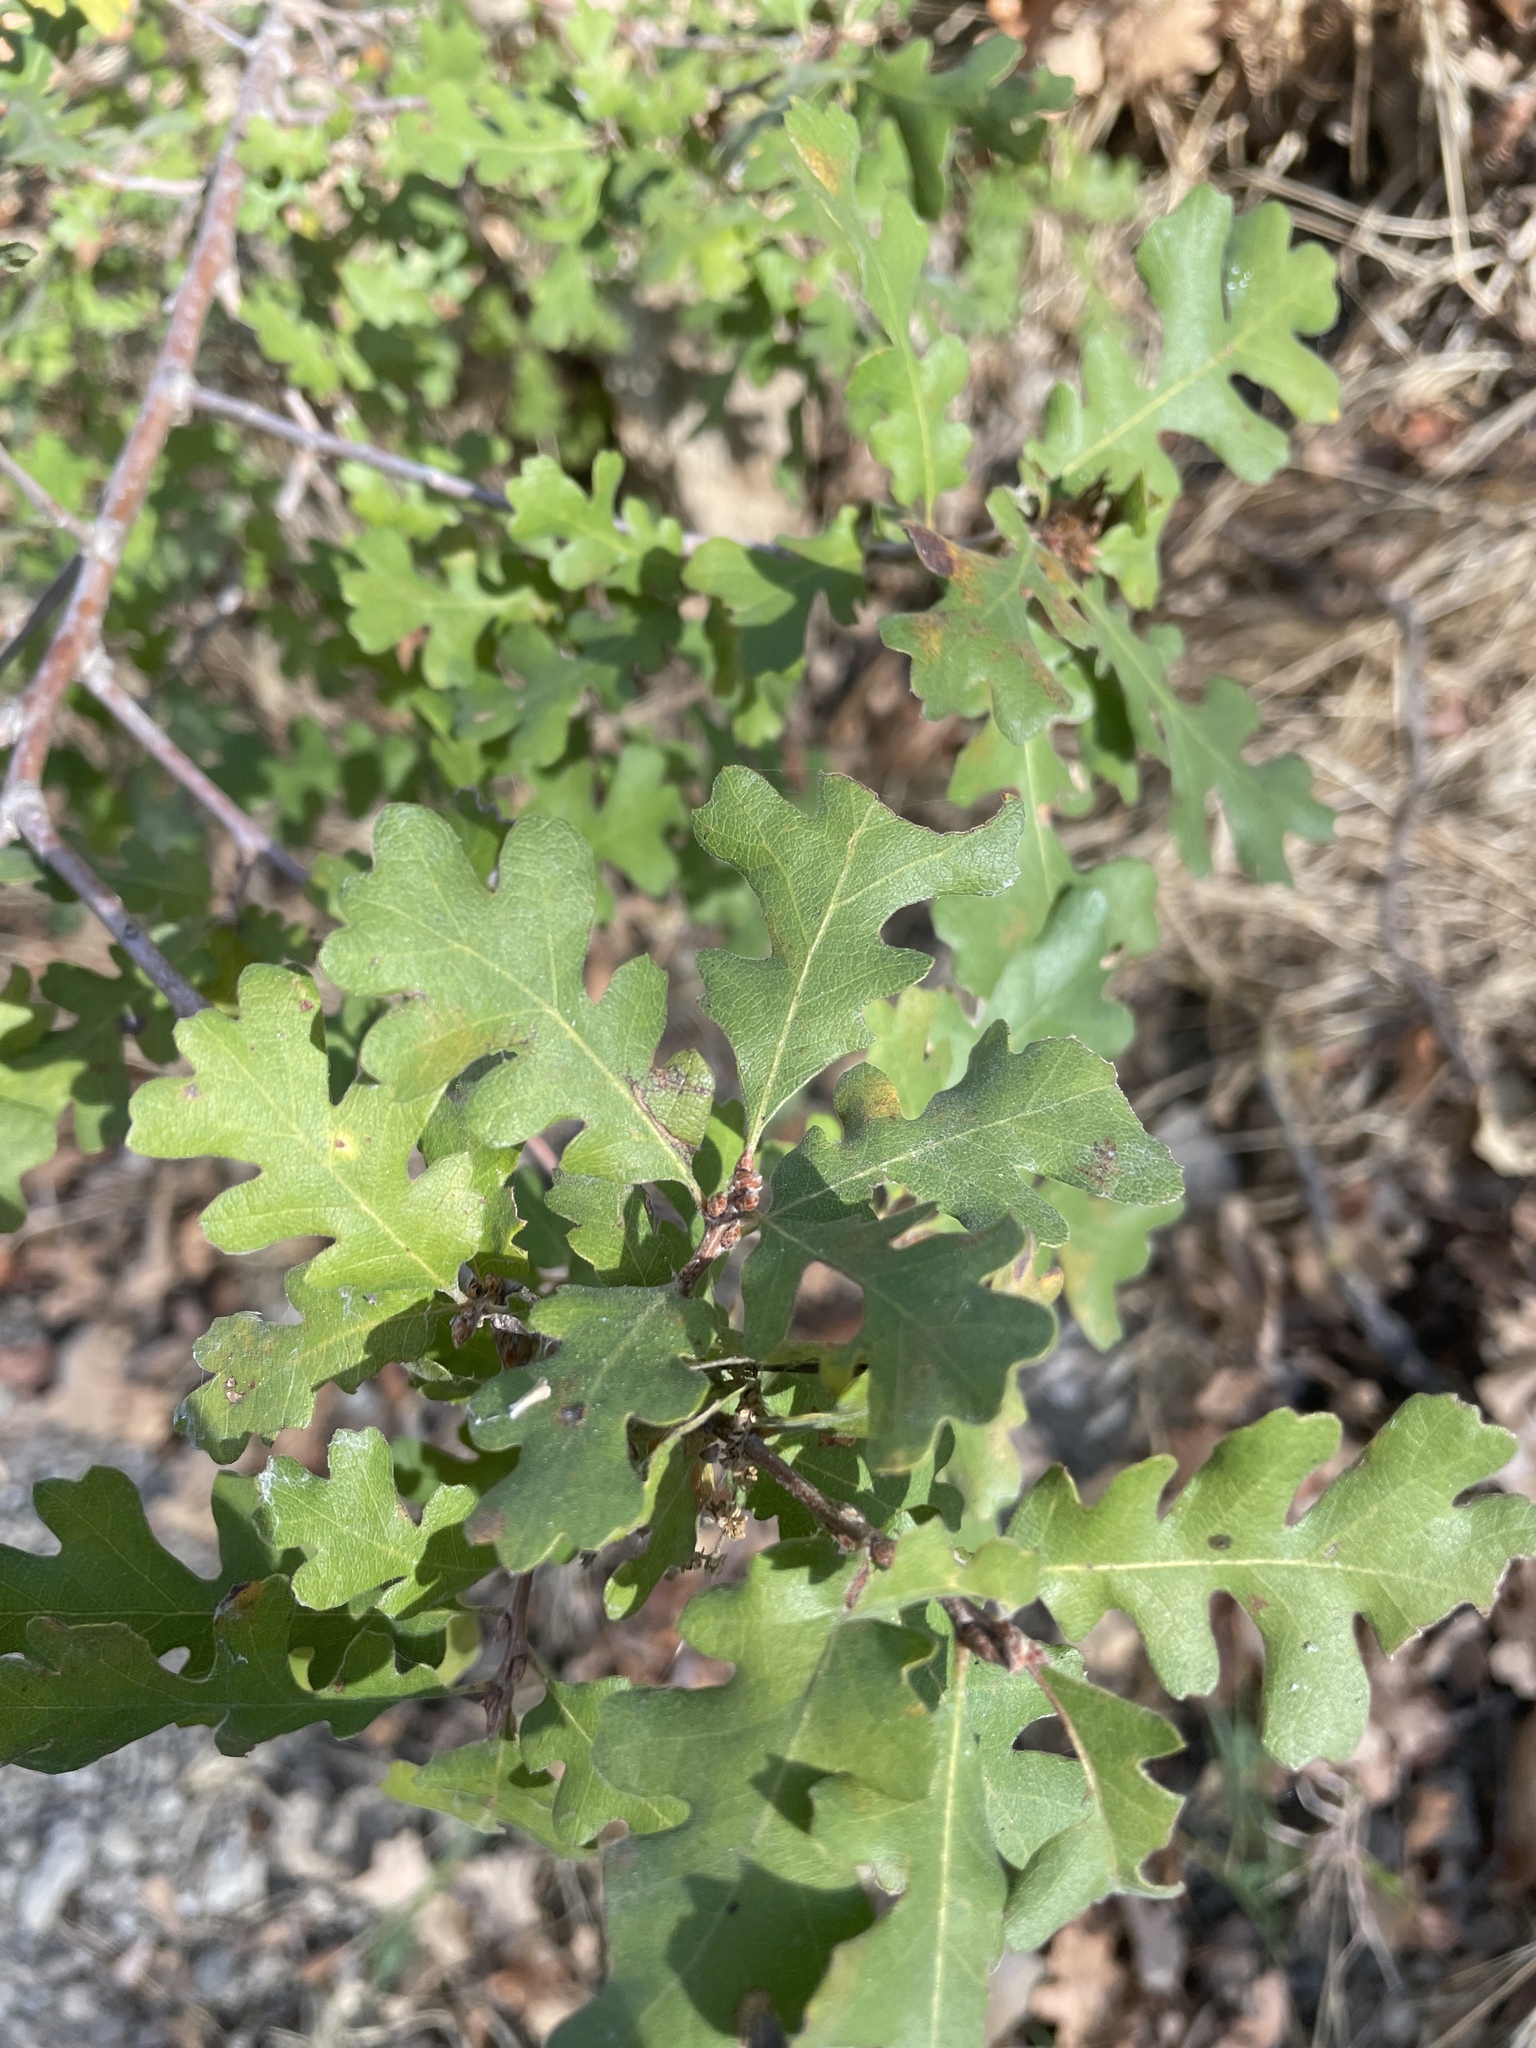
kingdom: Plantae
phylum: Tracheophyta
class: Magnoliopsida
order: Fagales
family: Fagaceae
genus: Quercus
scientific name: Quercus lobata
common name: Valley oak
